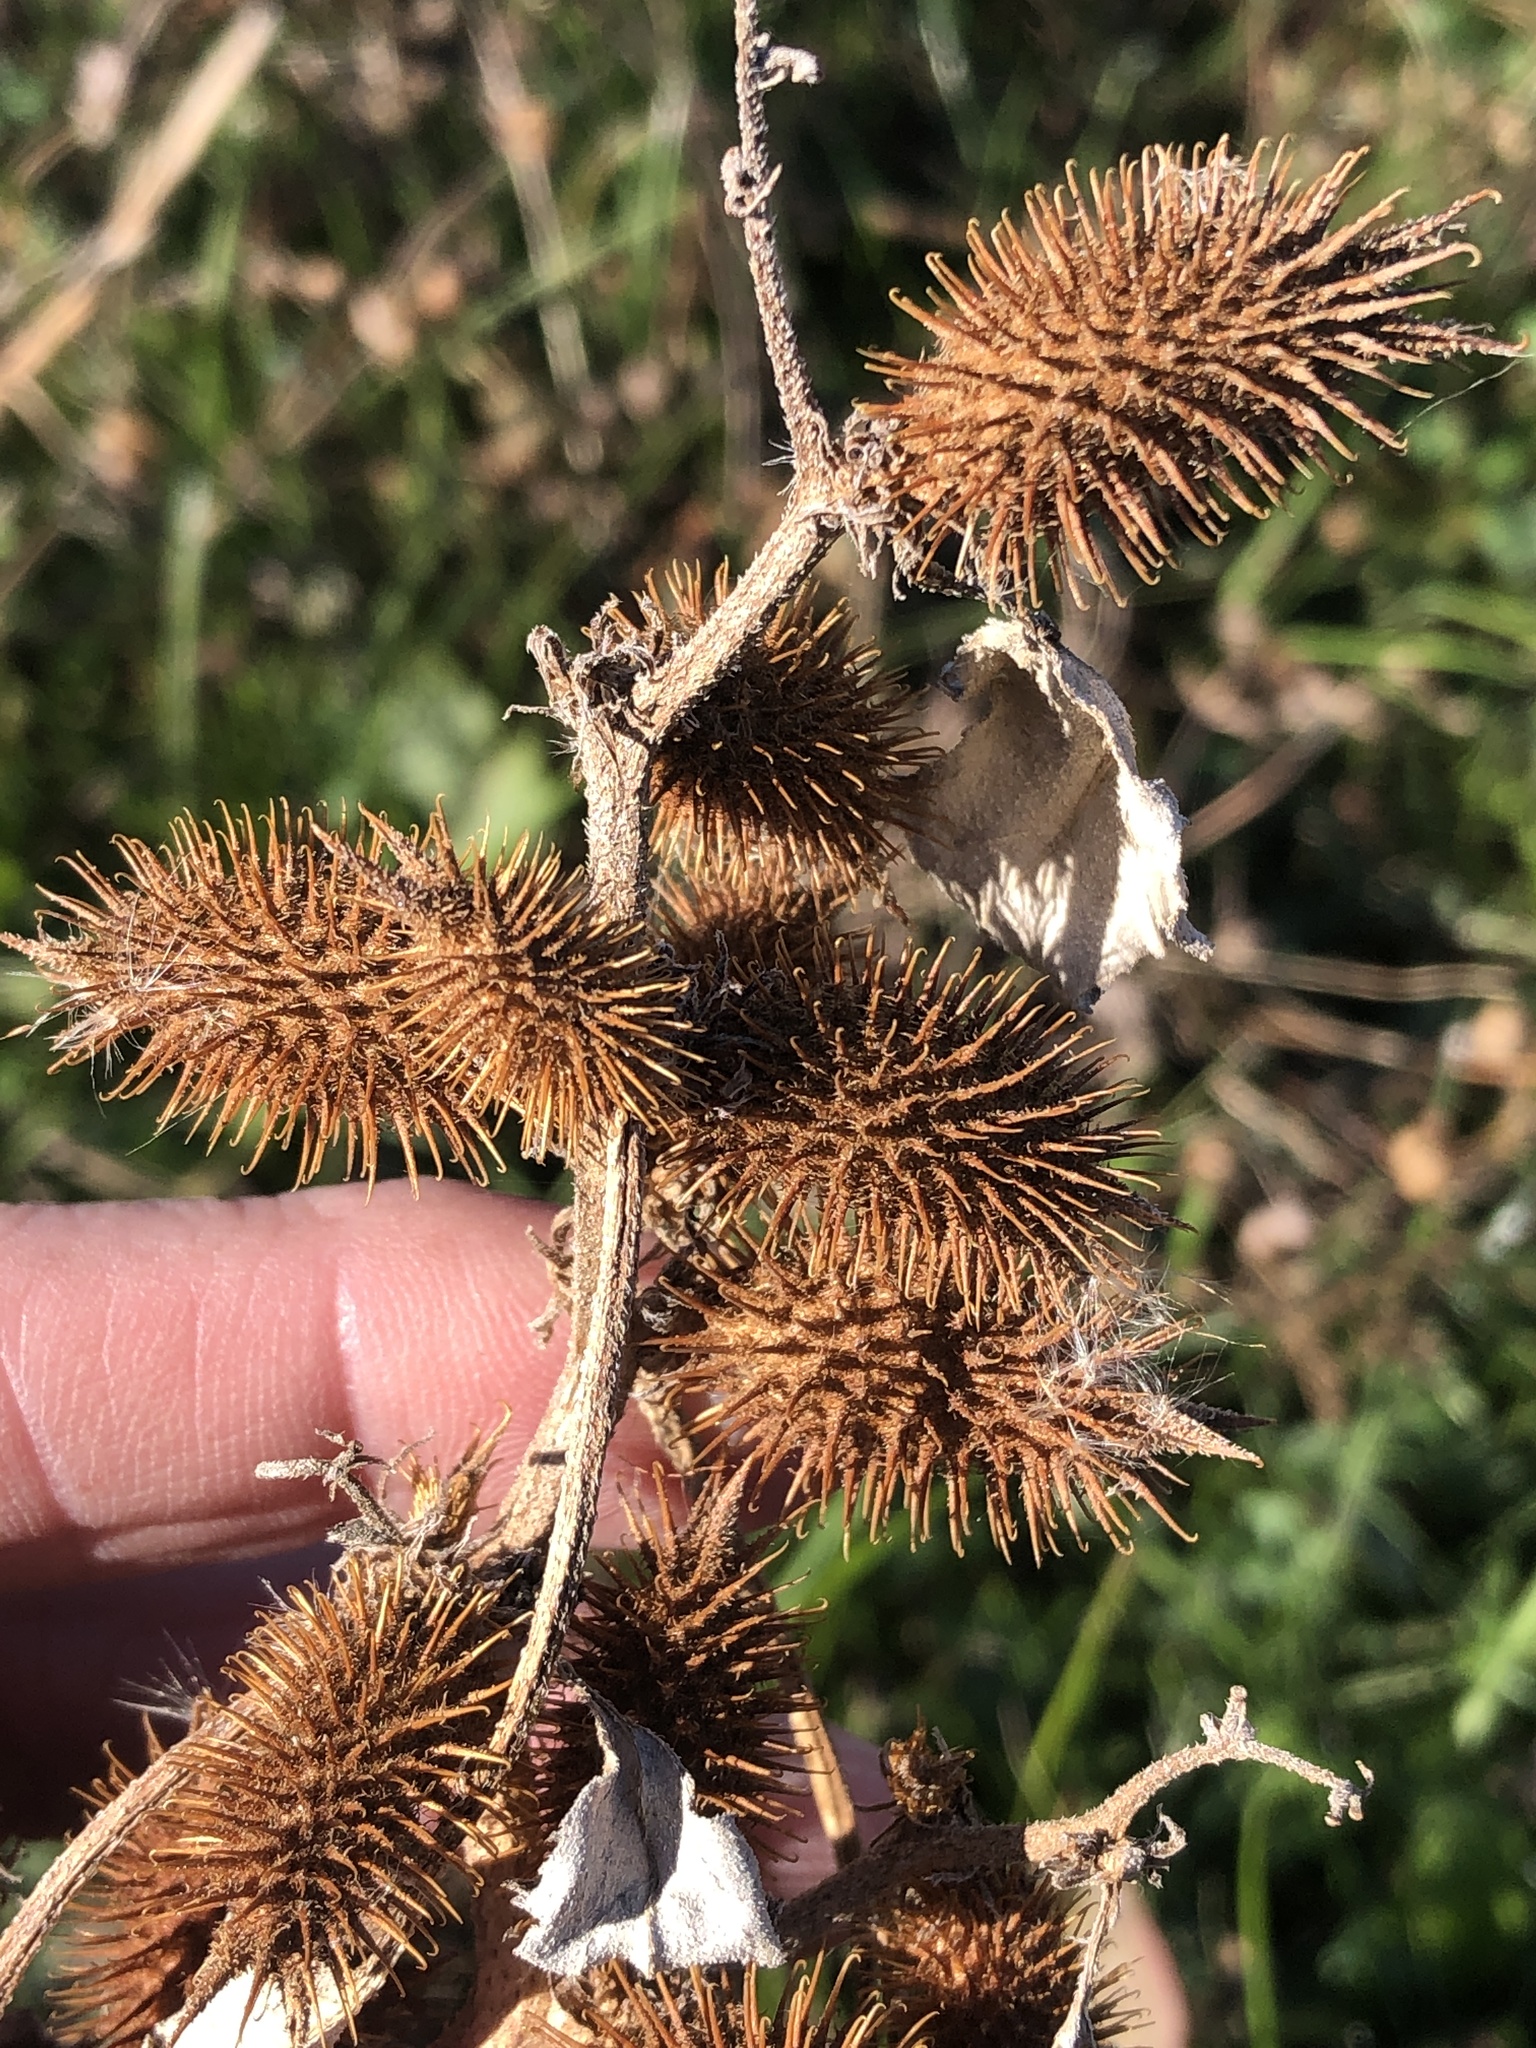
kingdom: Plantae
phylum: Tracheophyta
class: Magnoliopsida
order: Asterales
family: Asteraceae
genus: Xanthium
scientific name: Xanthium strumarium
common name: Rough cocklebur
